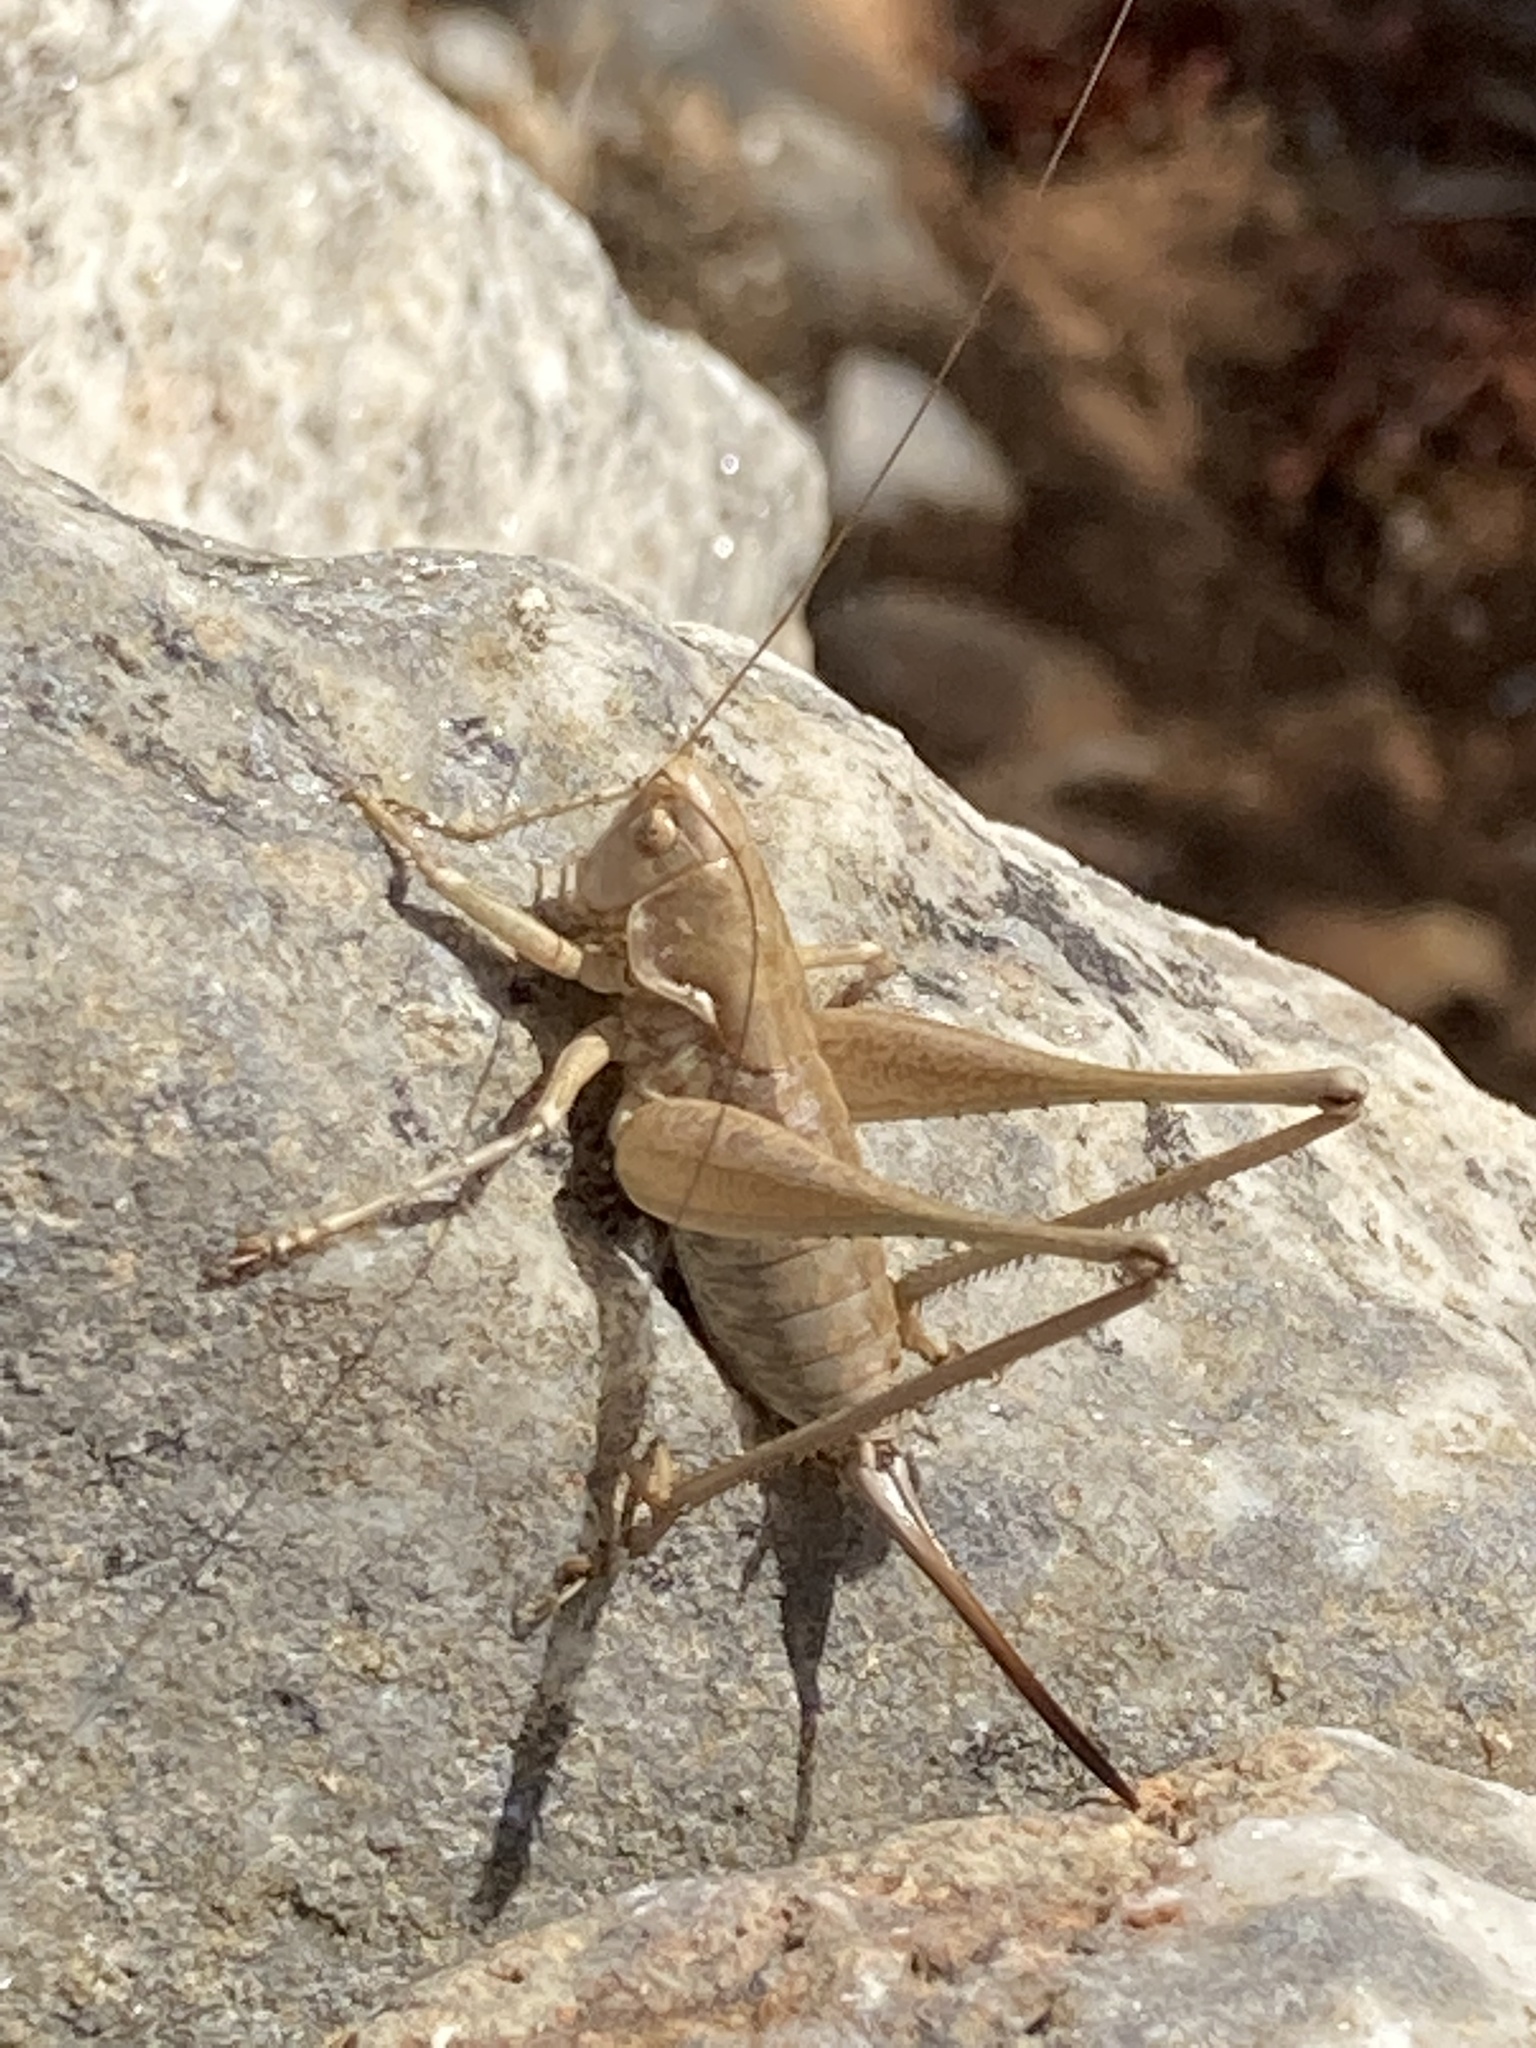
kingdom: Animalia
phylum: Arthropoda
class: Insecta
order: Orthoptera
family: Tettigoniidae
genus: Rhacocleis
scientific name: Rhacocleis
